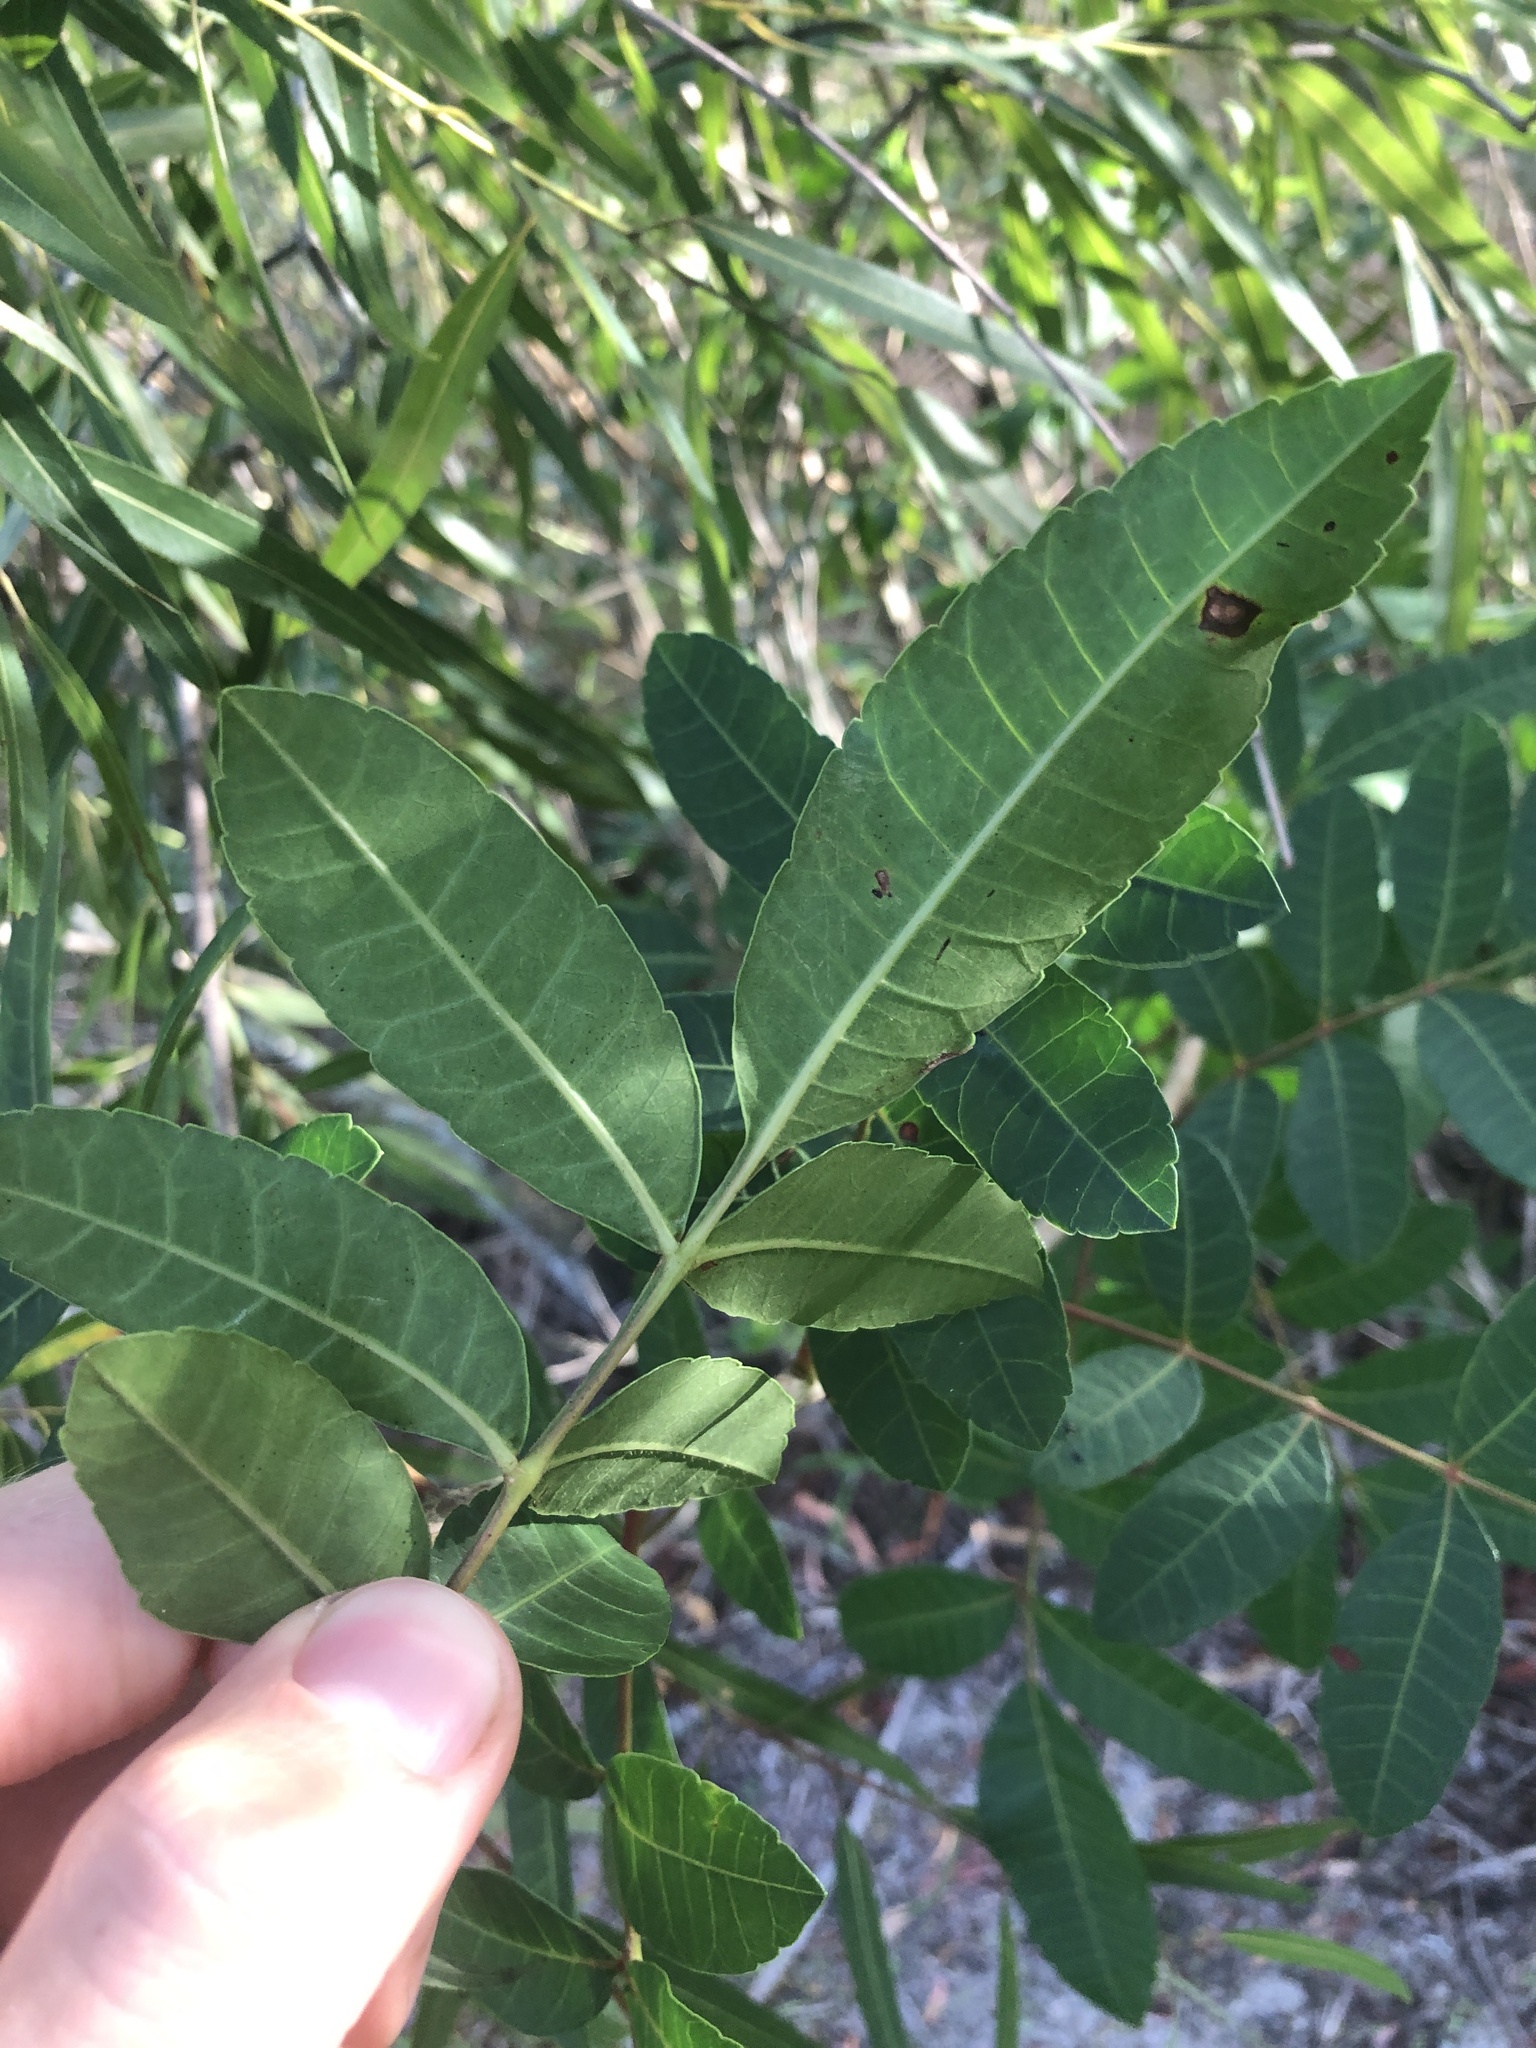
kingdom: Plantae
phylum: Tracheophyta
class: Magnoliopsida
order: Sapindales
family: Anacardiaceae
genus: Schinus
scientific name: Schinus terebinthifolia
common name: Brazilian peppertree
